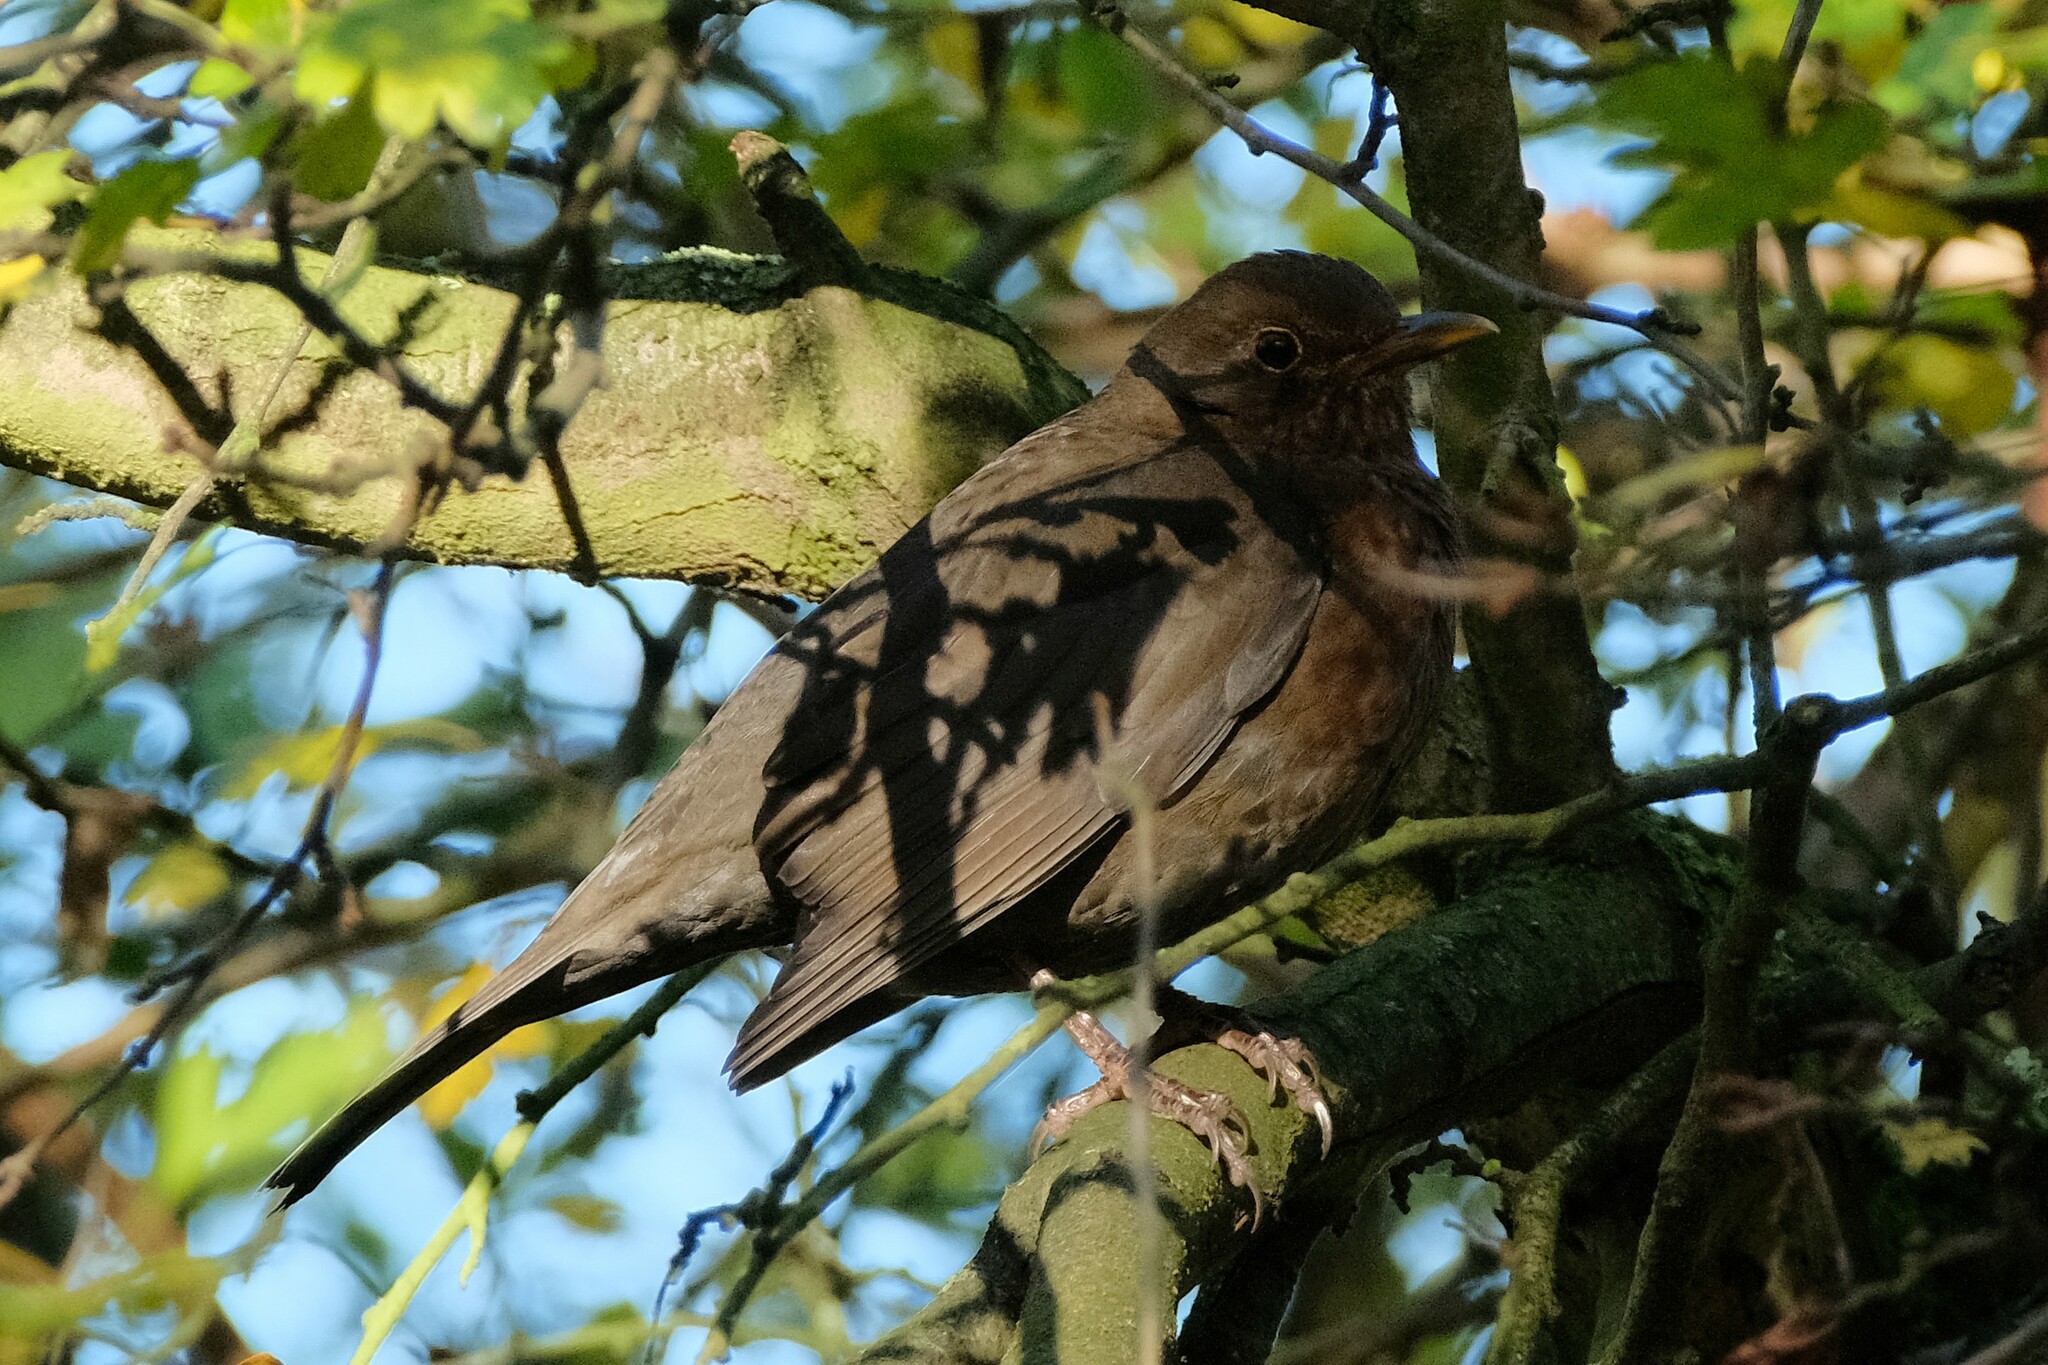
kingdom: Animalia
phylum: Chordata
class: Aves
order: Passeriformes
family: Turdidae
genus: Turdus
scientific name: Turdus merula
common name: Common blackbird
